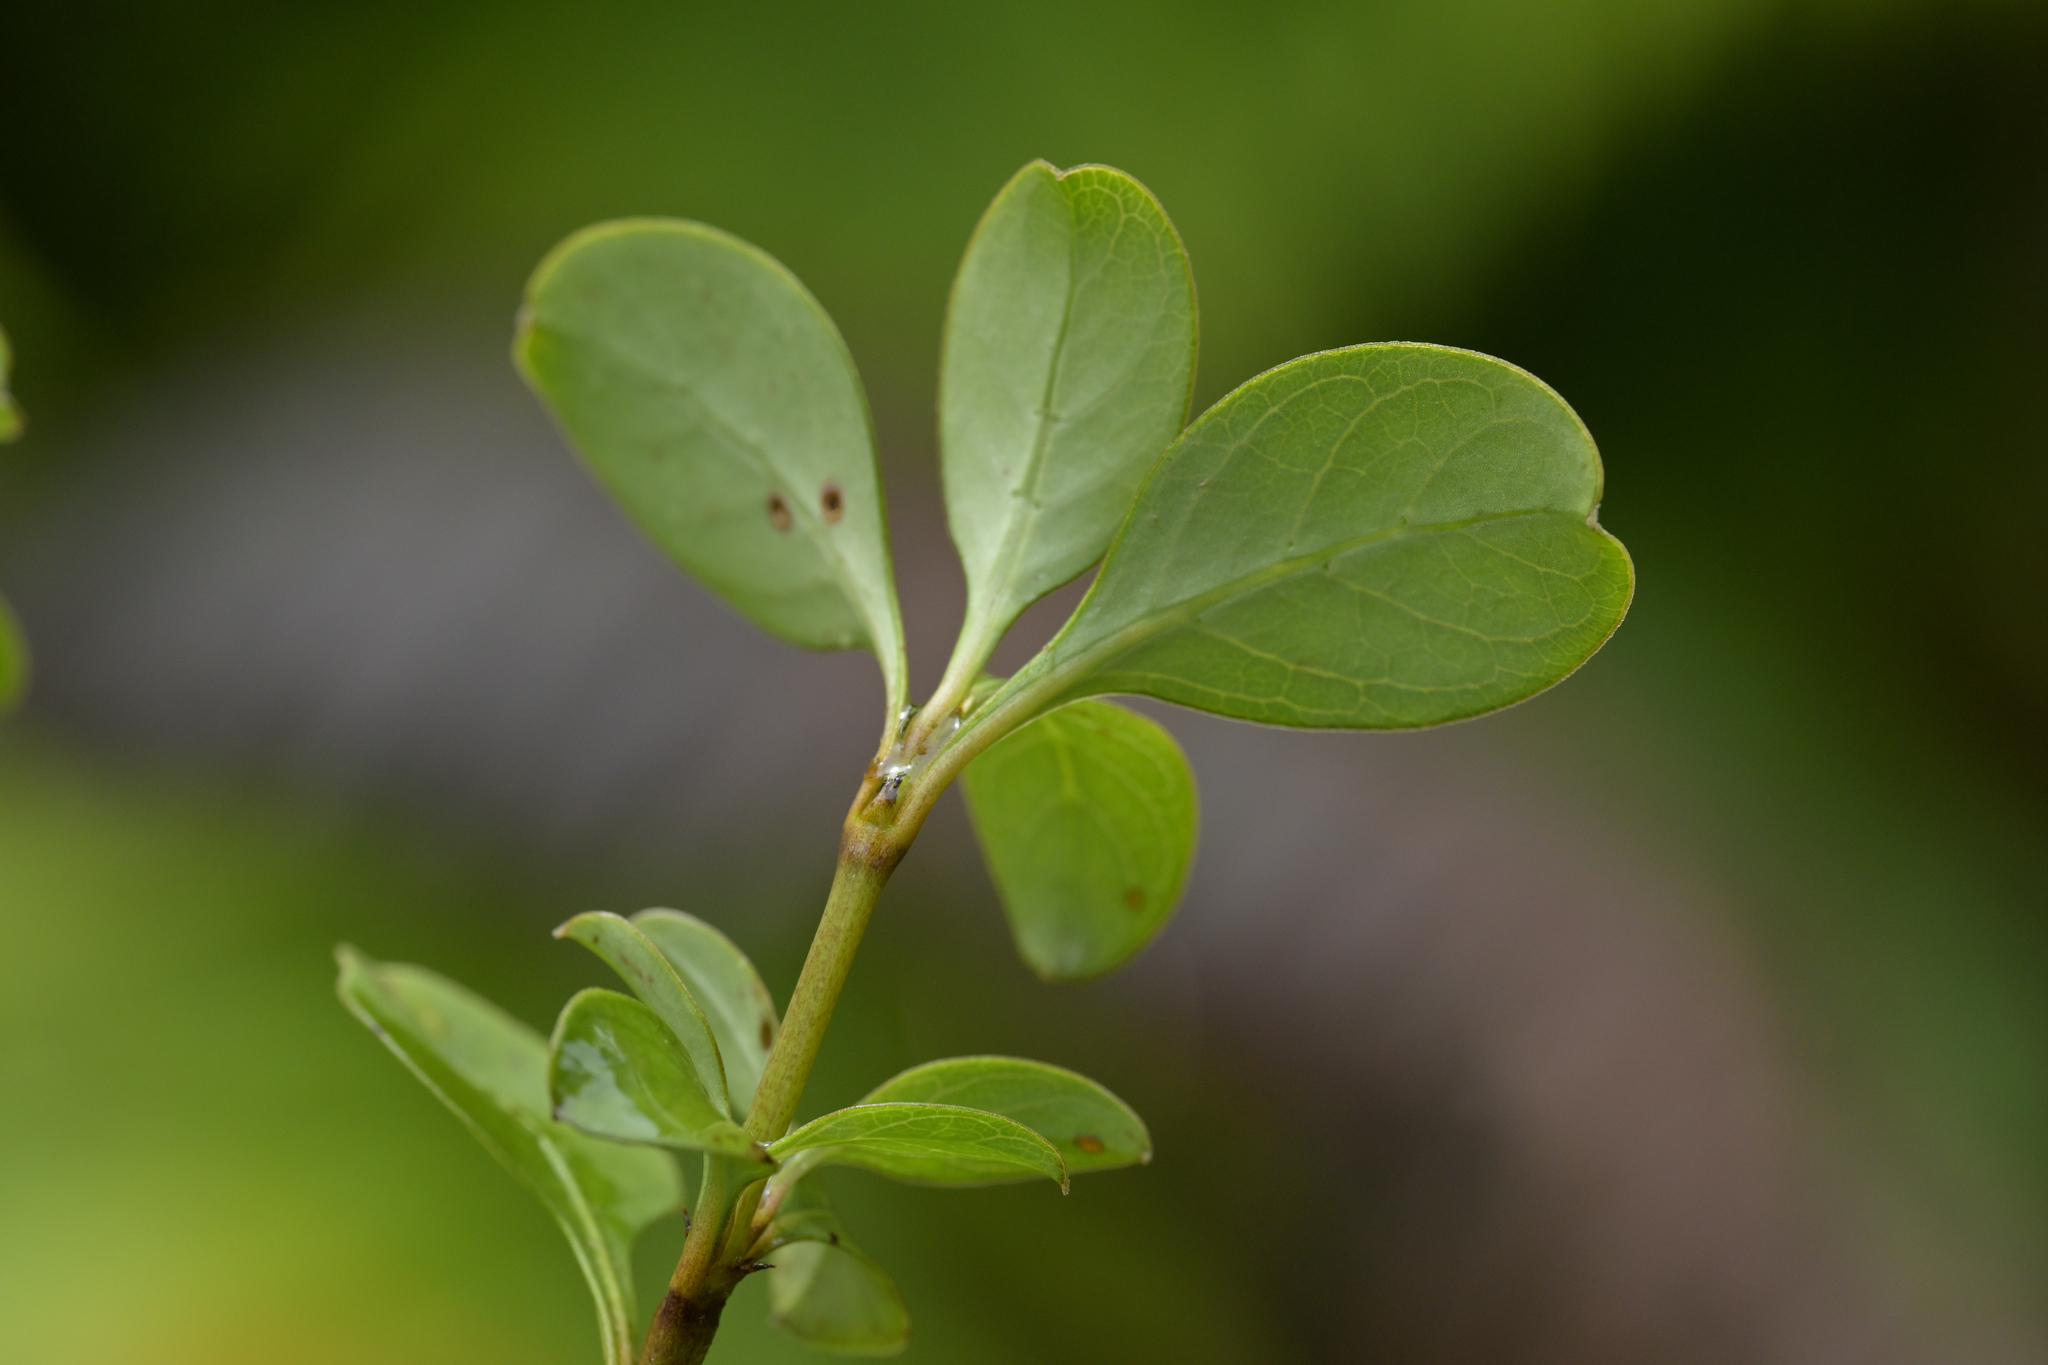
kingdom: Plantae
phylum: Tracheophyta
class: Magnoliopsida
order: Gentianales
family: Rubiaceae
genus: Coprosma
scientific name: Coprosma foetidissima
